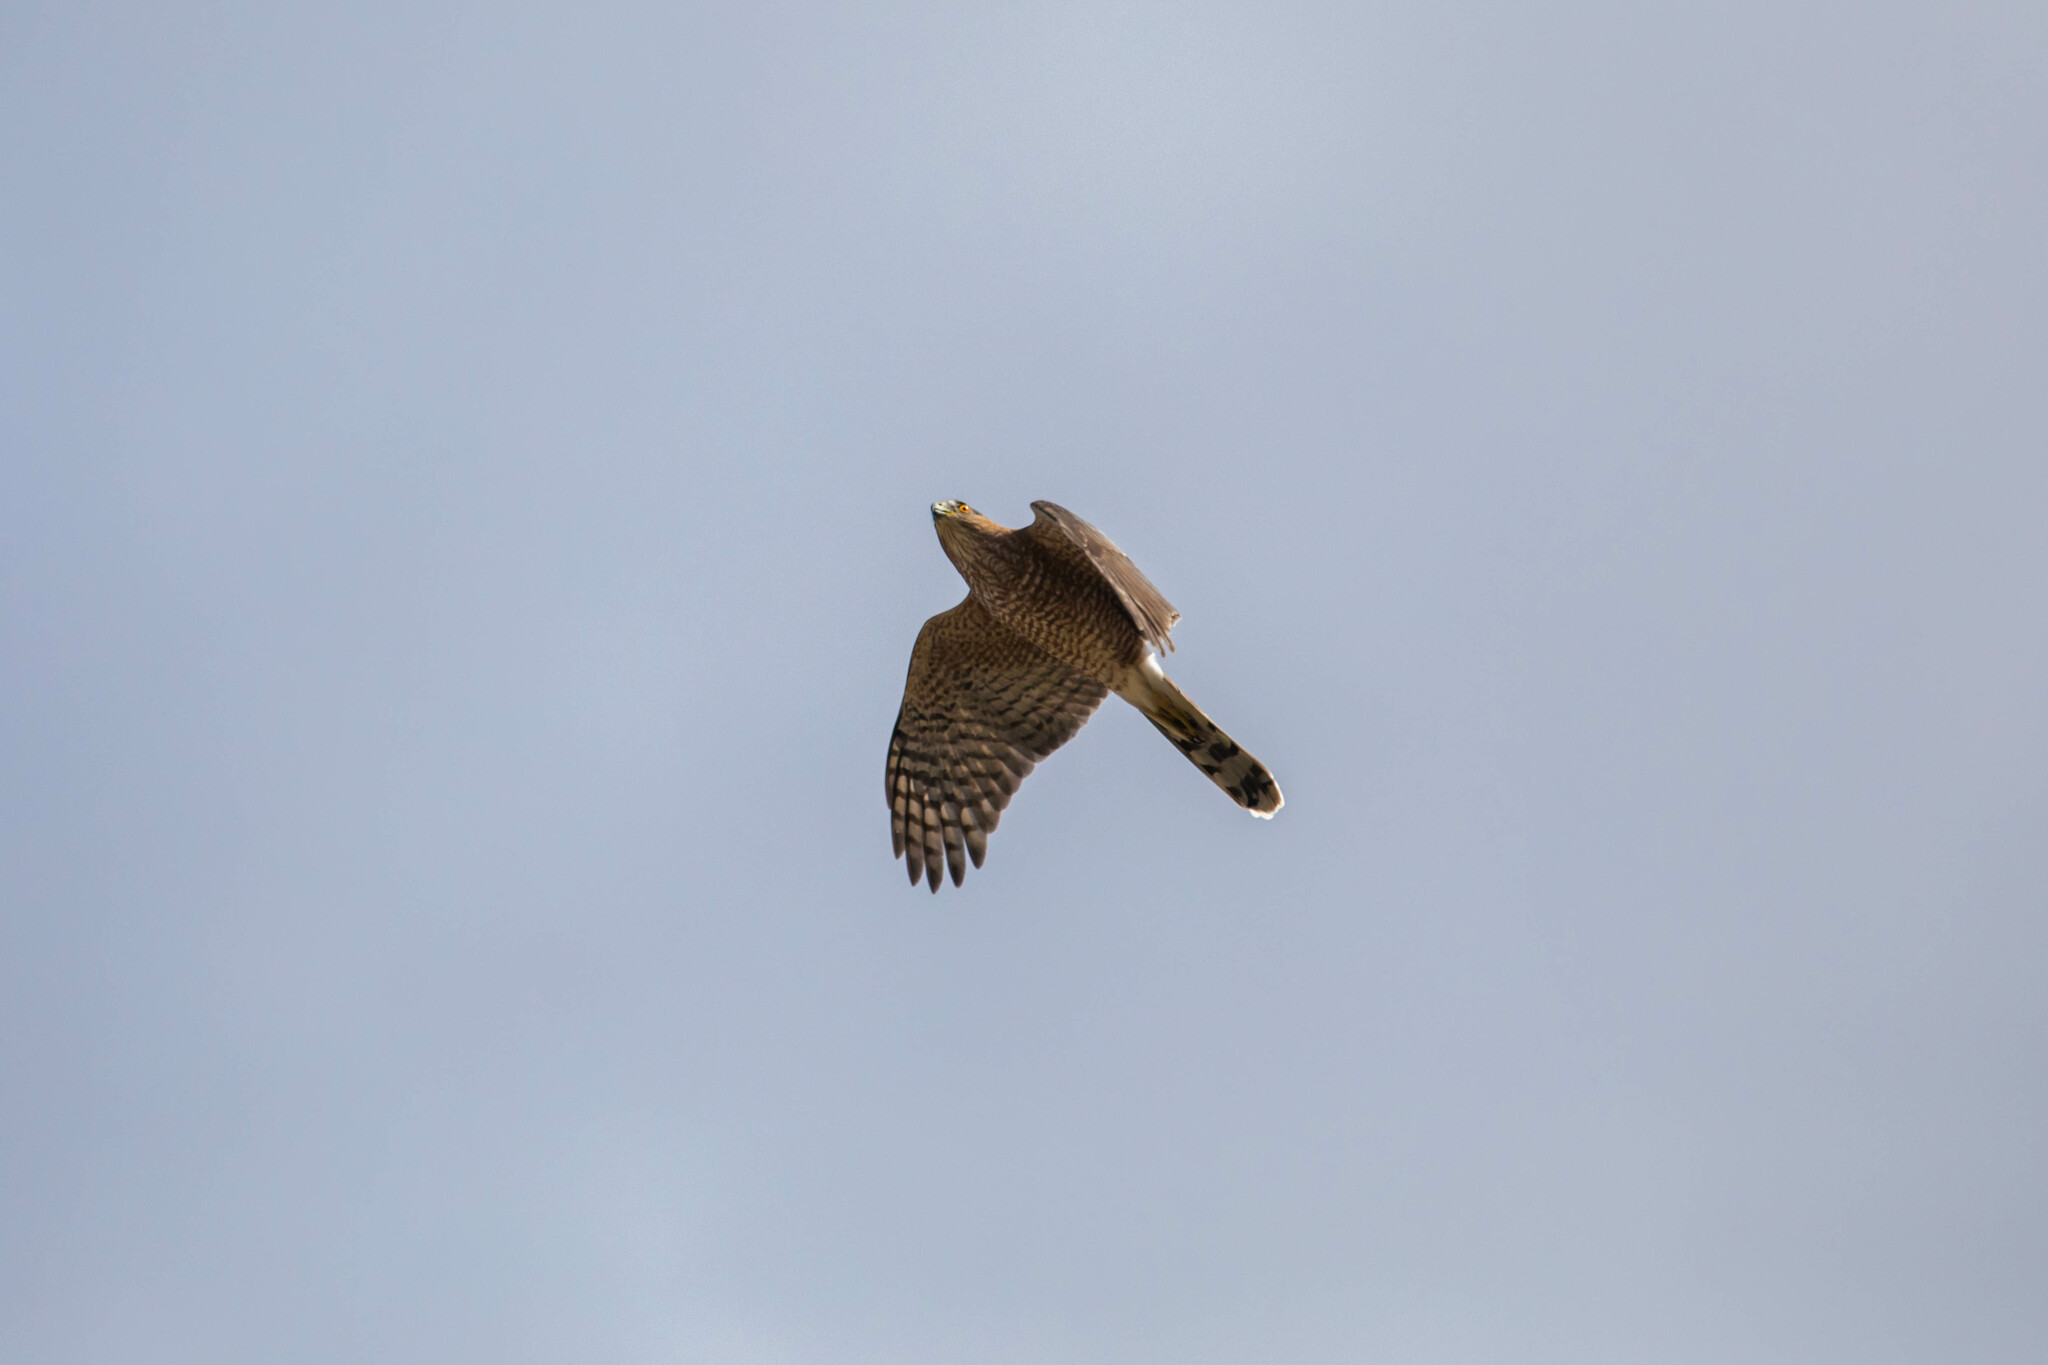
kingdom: Animalia
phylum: Chordata
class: Aves
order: Accipitriformes
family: Accipitridae
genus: Accipiter
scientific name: Accipiter cooperii
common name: Cooper's hawk
